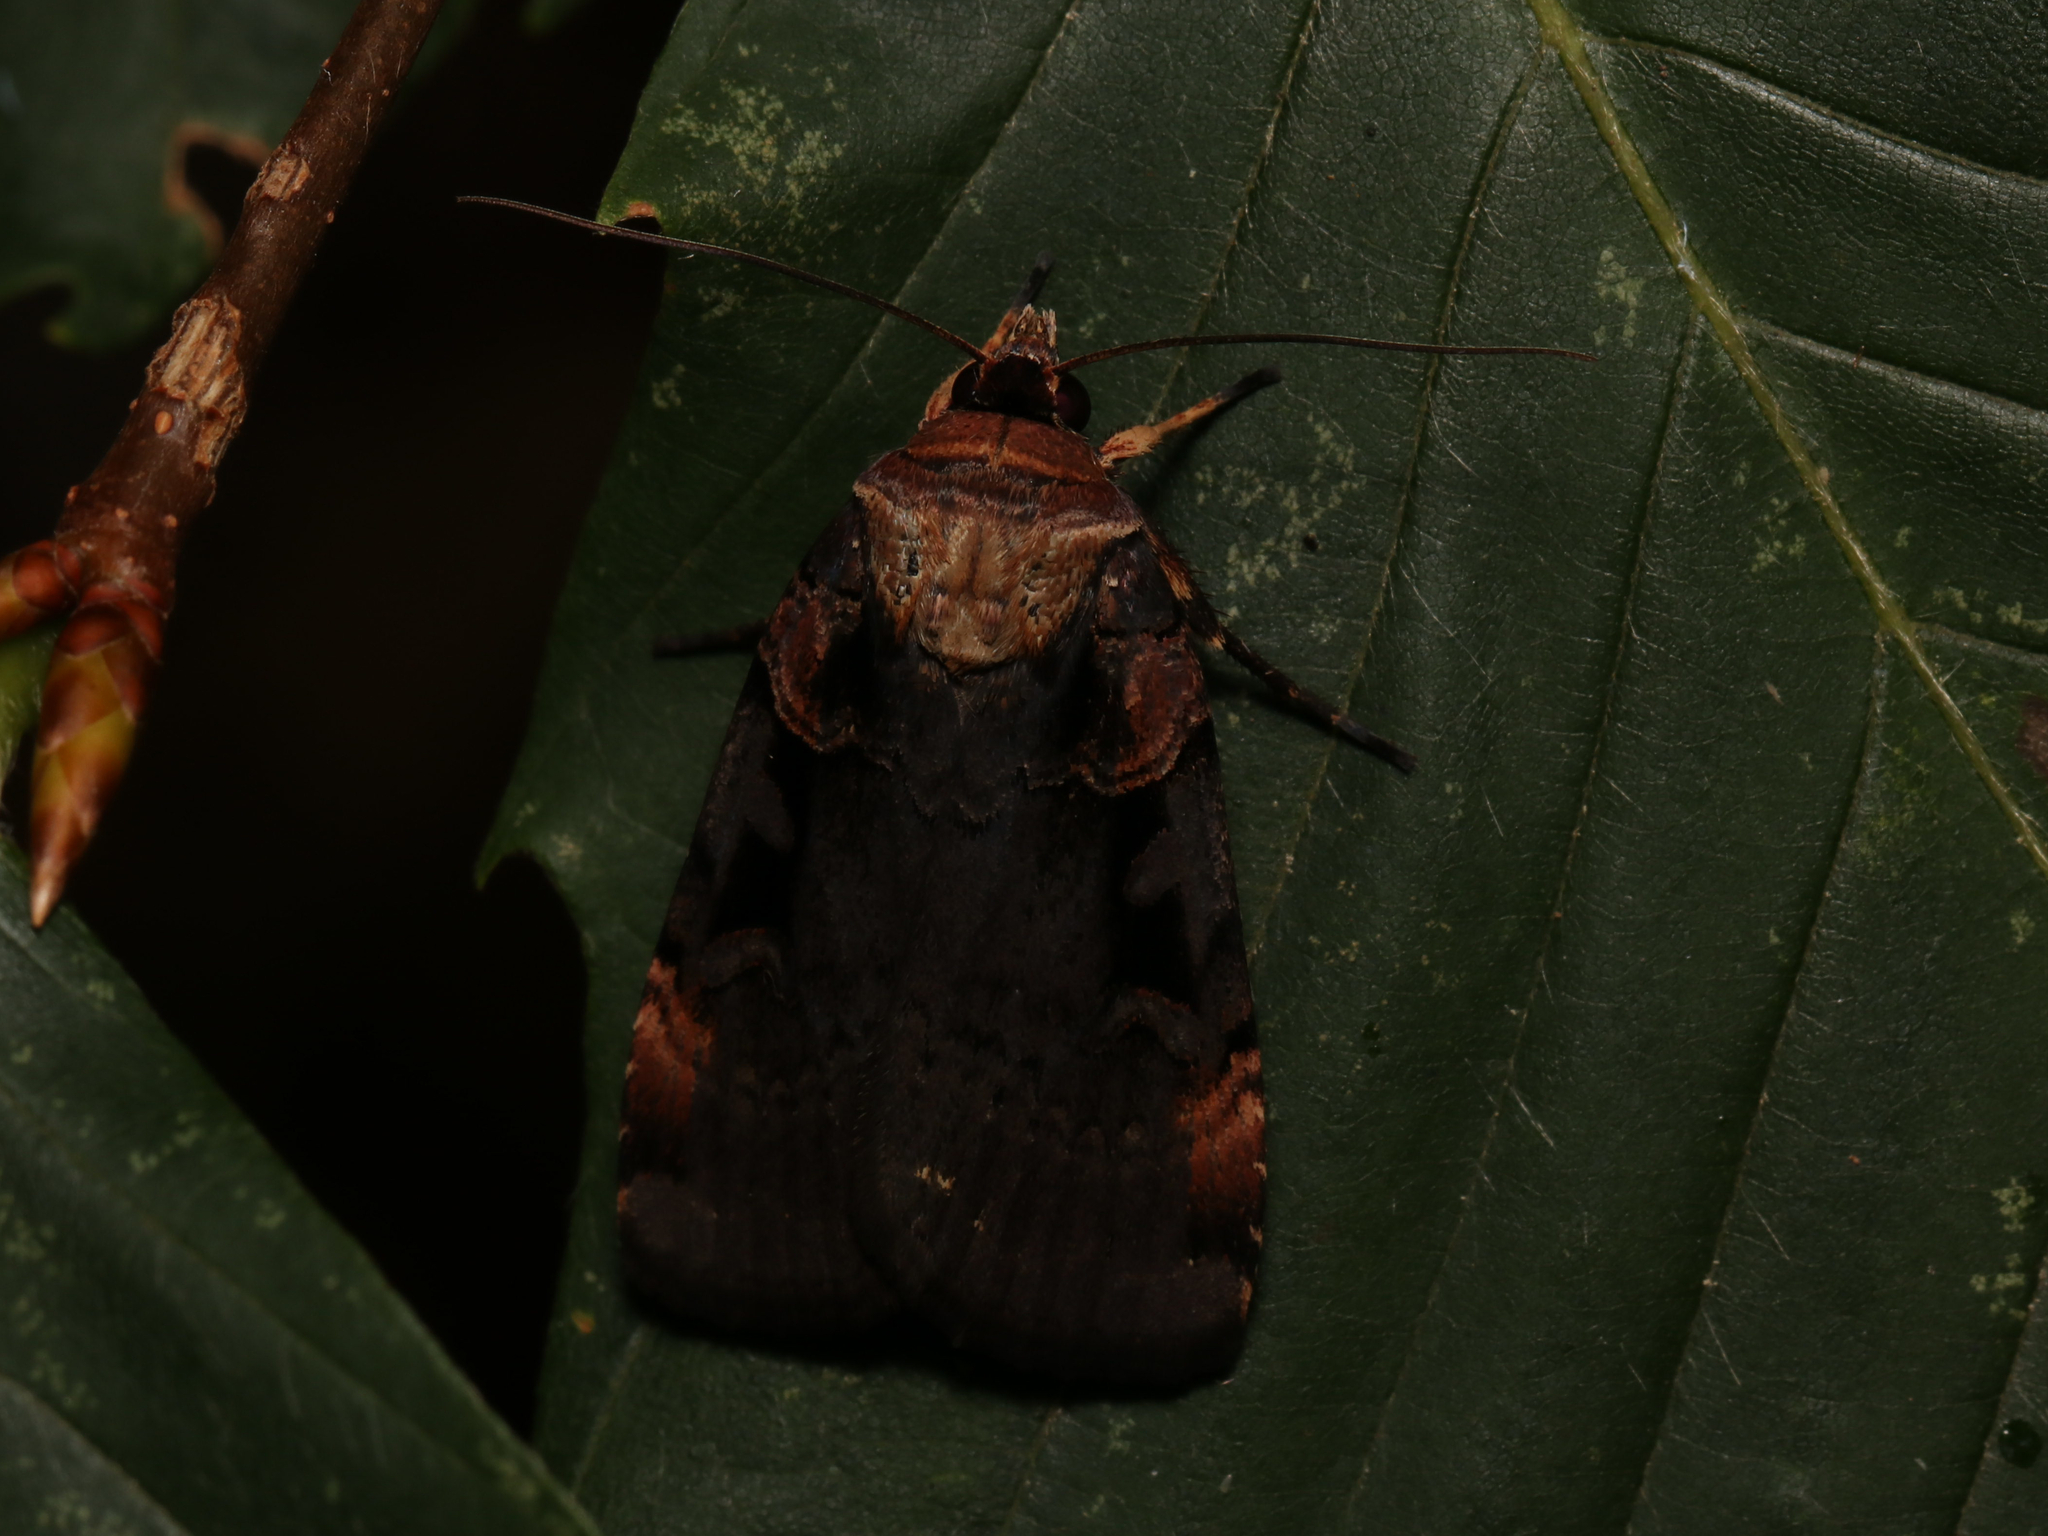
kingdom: Animalia
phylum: Arthropoda
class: Insecta
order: Lepidoptera
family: Noctuidae
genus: Pseudohermonassa
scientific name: Pseudohermonassa bicarnea
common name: Pink spotted dart
